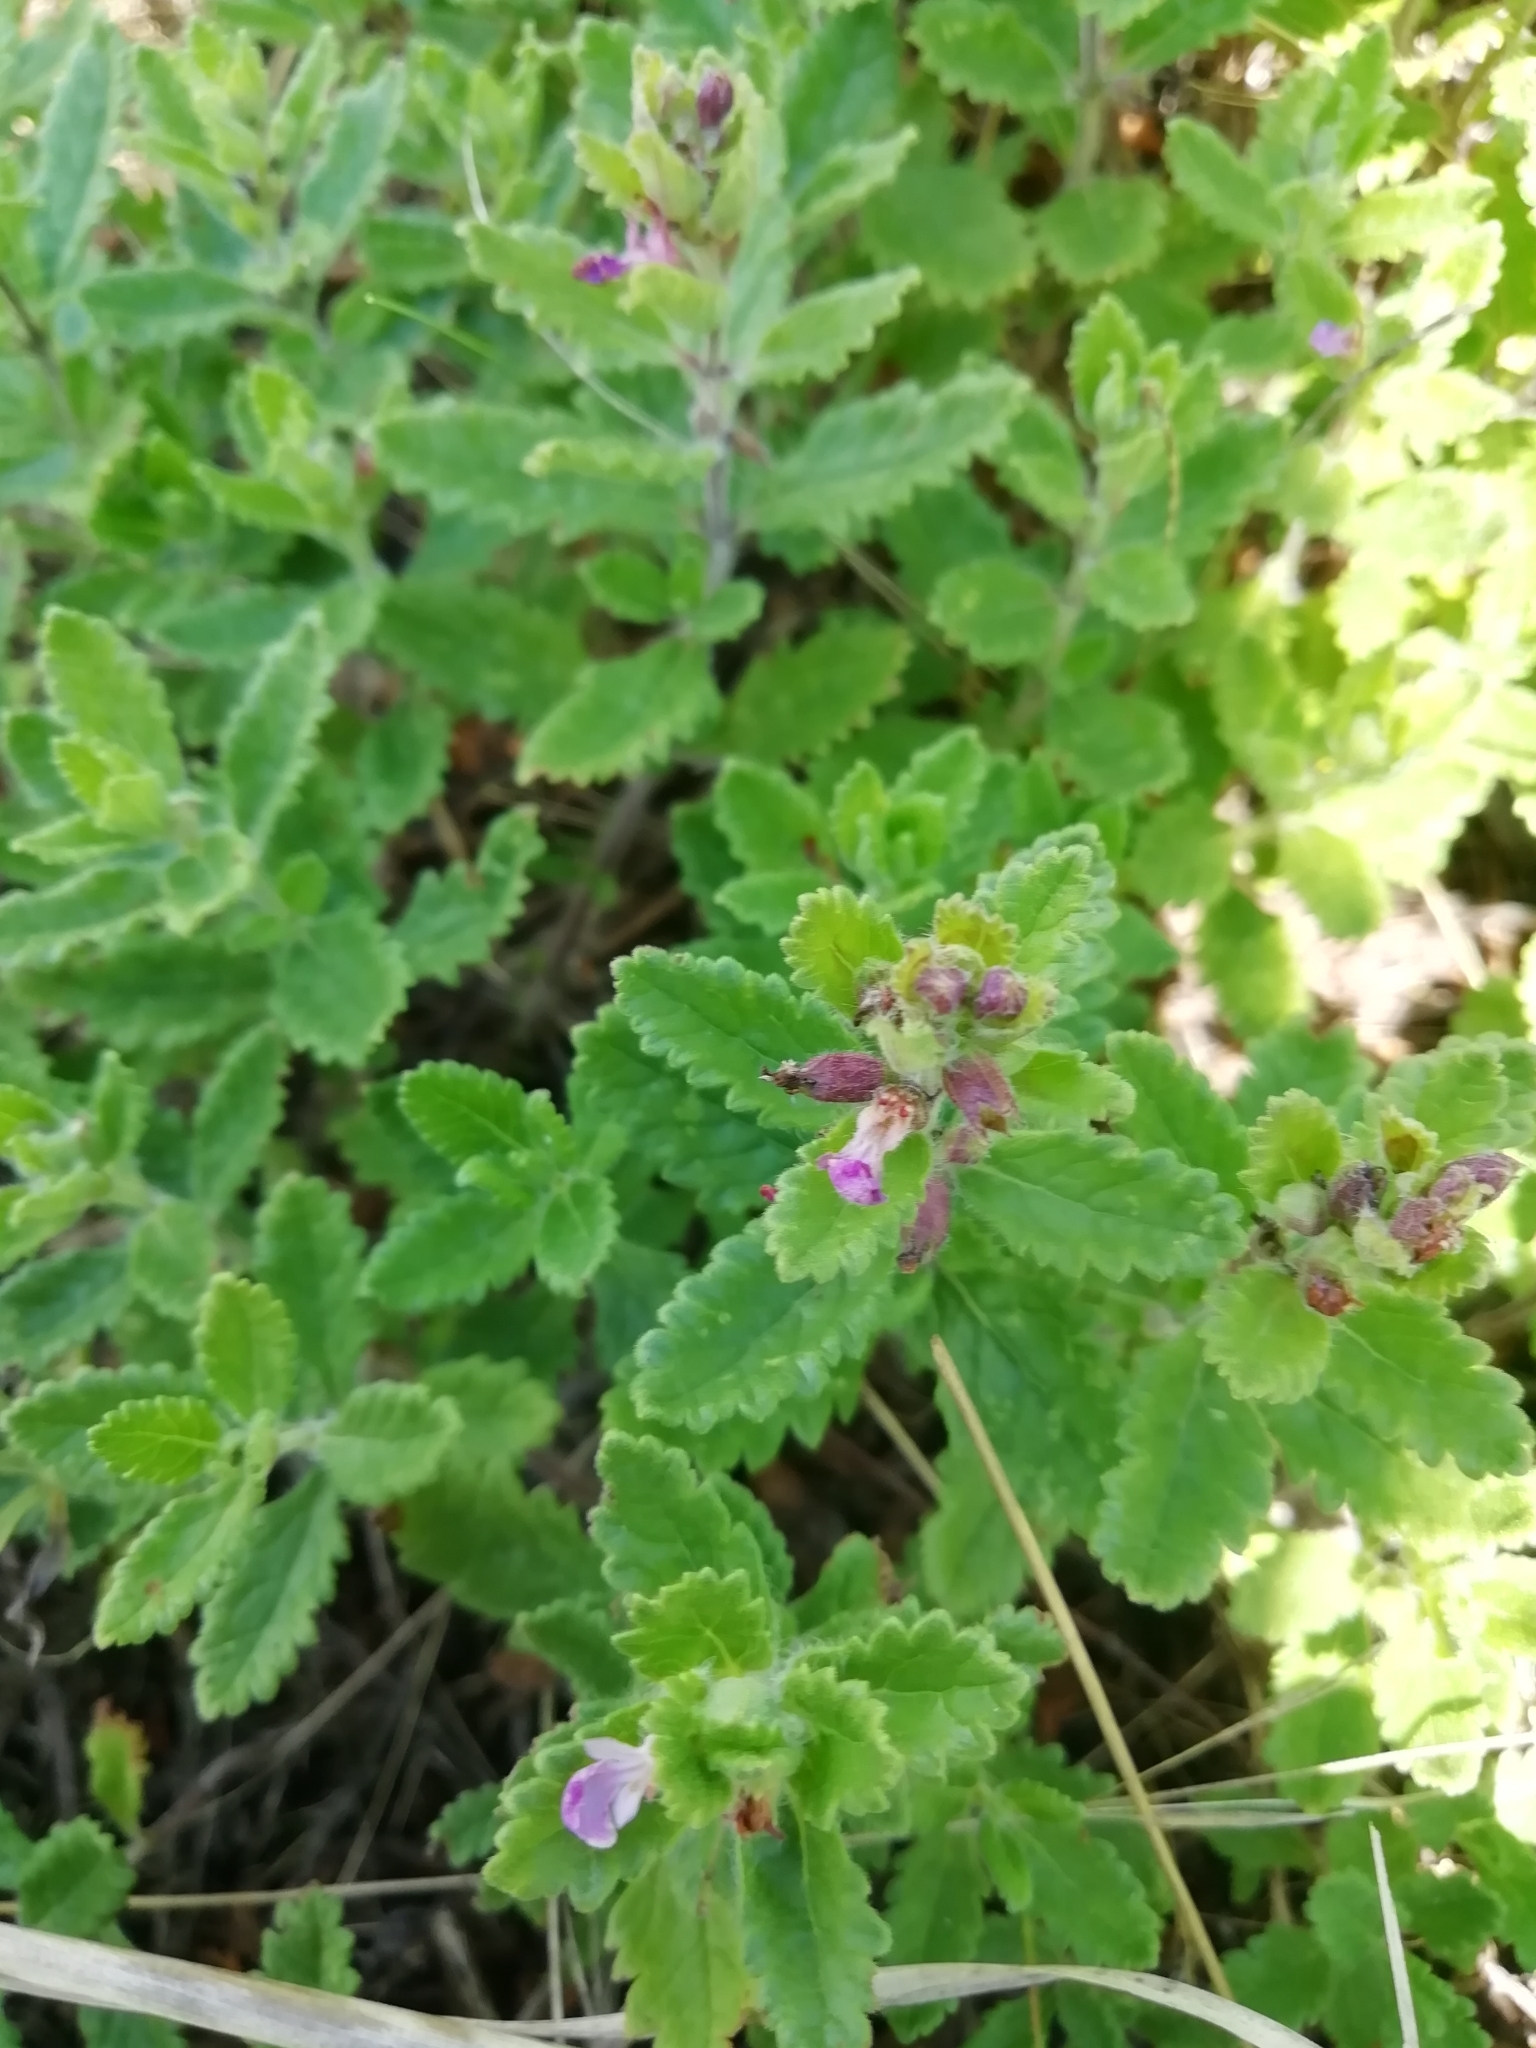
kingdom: Plantae
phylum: Tracheophyta
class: Magnoliopsida
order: Lamiales
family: Lamiaceae
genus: Teucrium
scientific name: Teucrium chamaedrys
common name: Wall germander
